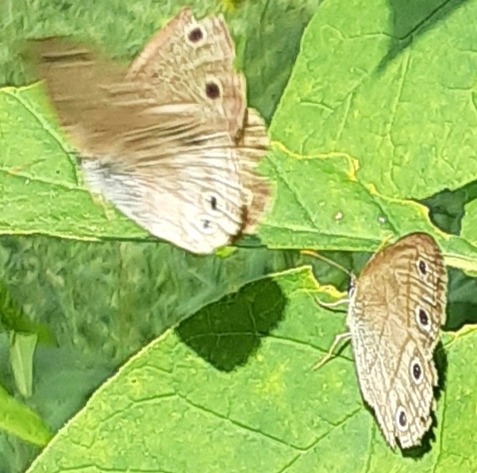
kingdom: Animalia
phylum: Arthropoda
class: Insecta
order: Lepidoptera
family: Nymphalidae
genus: Euptychia
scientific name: Euptychia cymela
